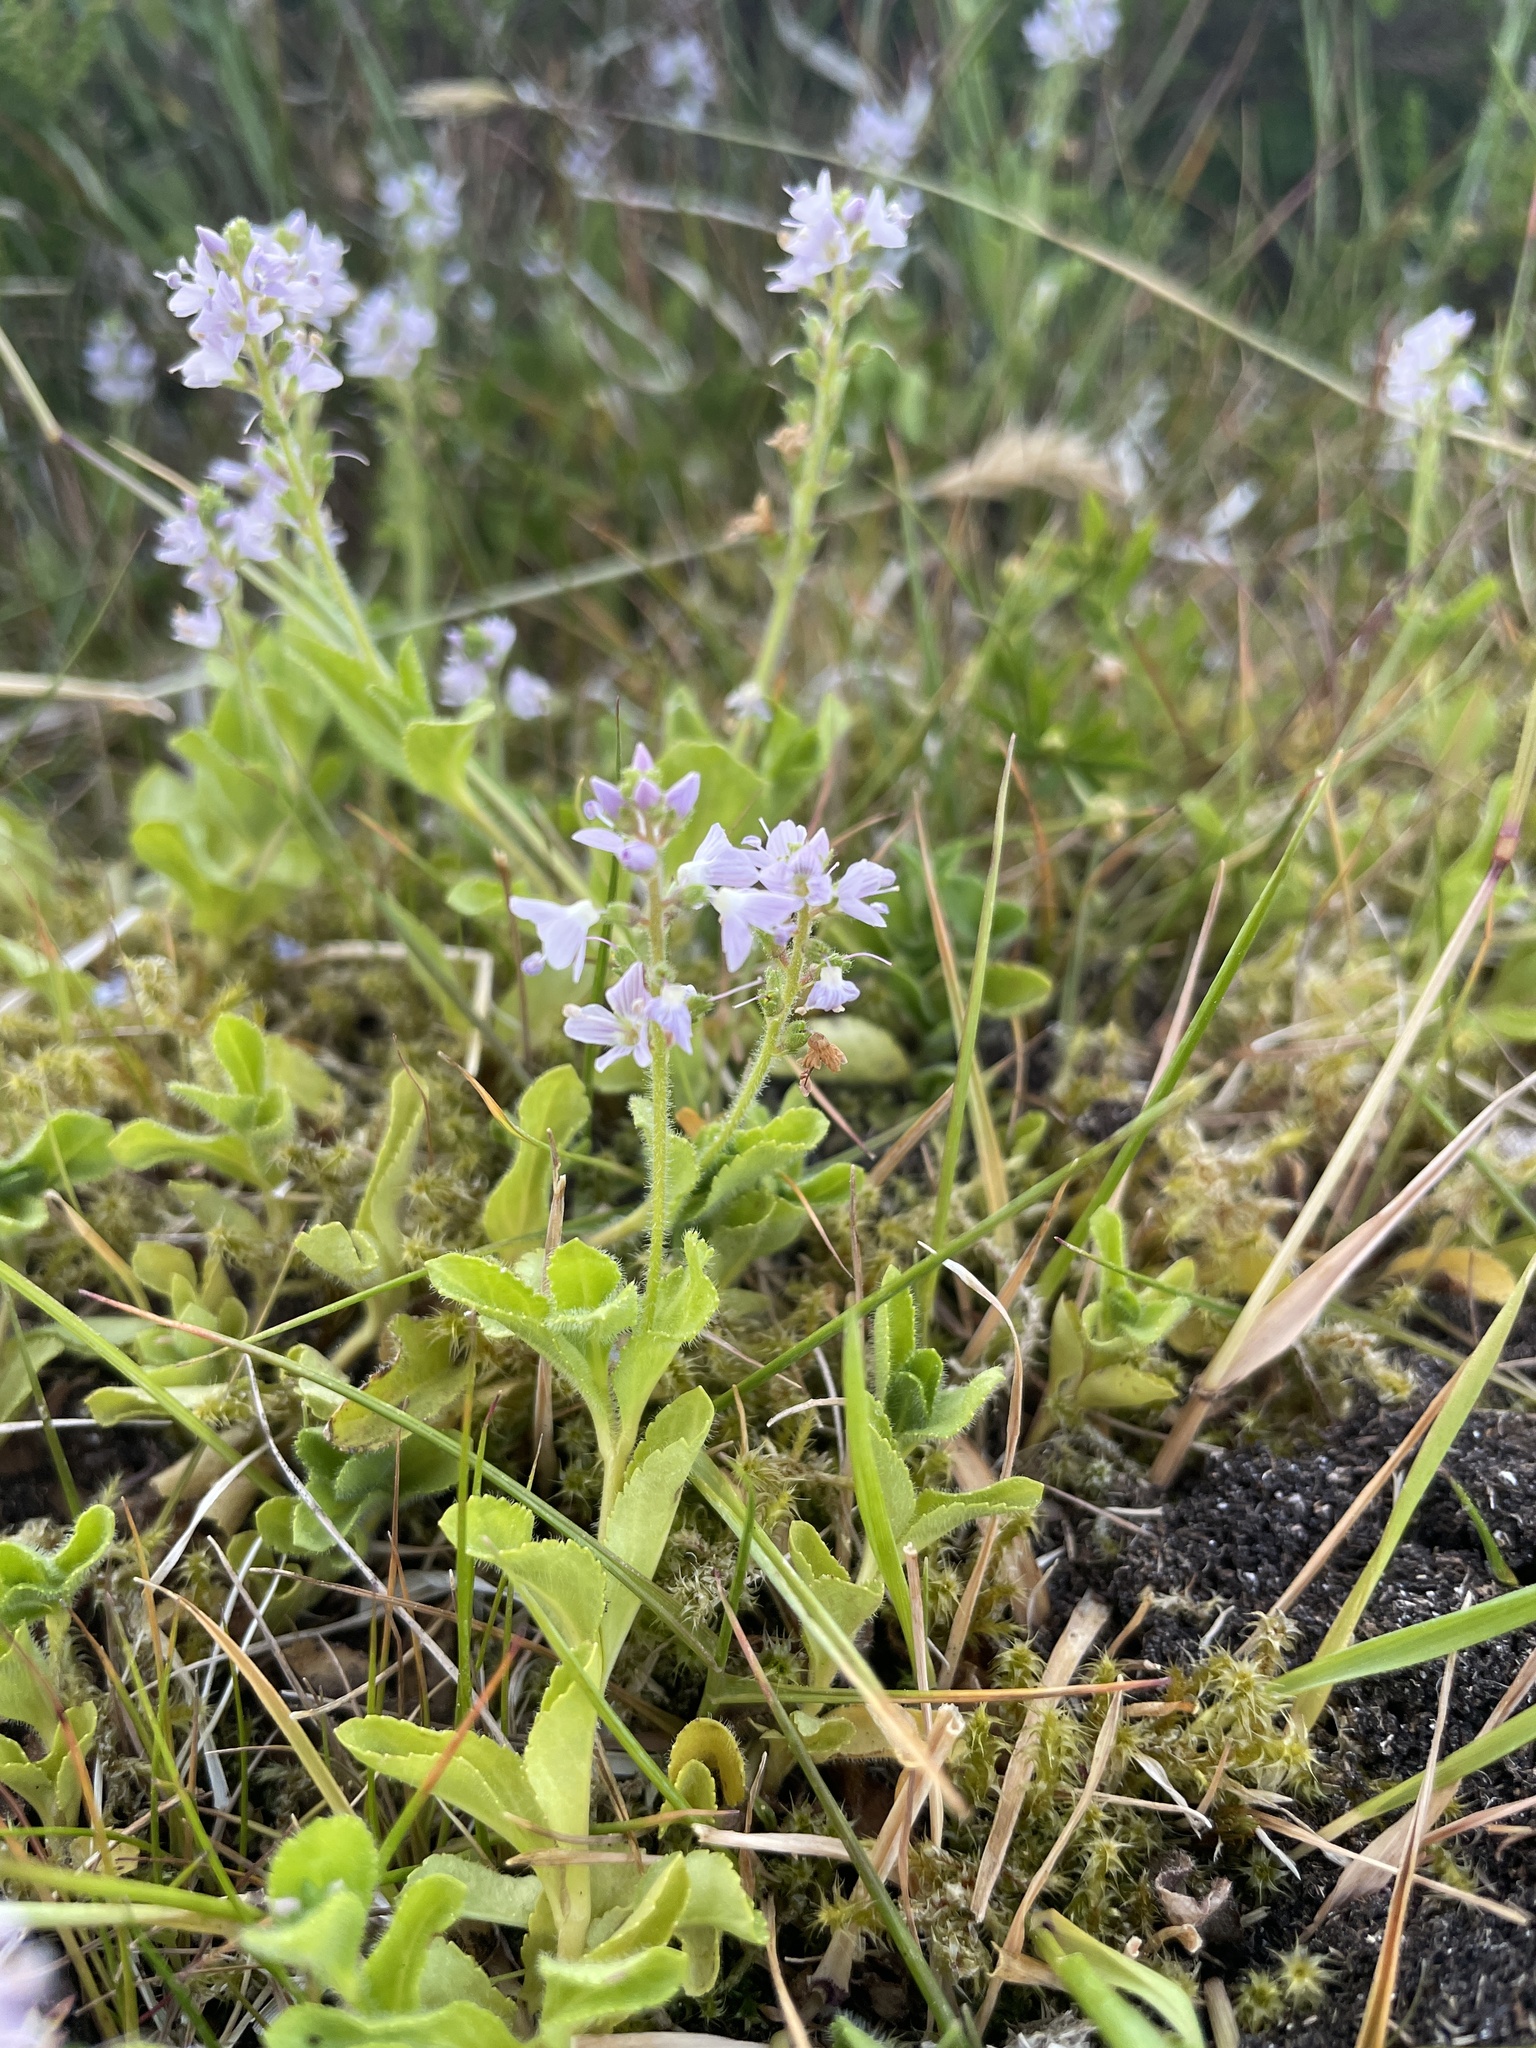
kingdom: Plantae
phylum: Tracheophyta
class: Magnoliopsida
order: Lamiales
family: Plantaginaceae
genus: Veronica
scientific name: Veronica officinalis
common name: Common speedwell
